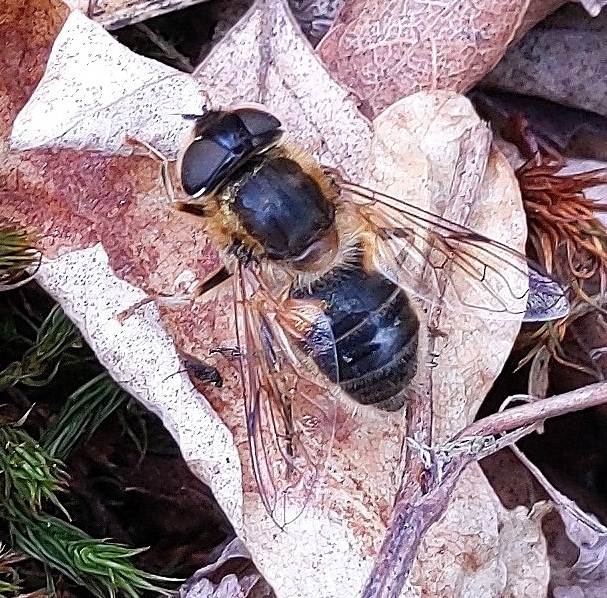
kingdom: Animalia
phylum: Arthropoda
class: Insecta
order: Diptera
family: Syrphidae
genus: Eristalis
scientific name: Eristalis pertinax
